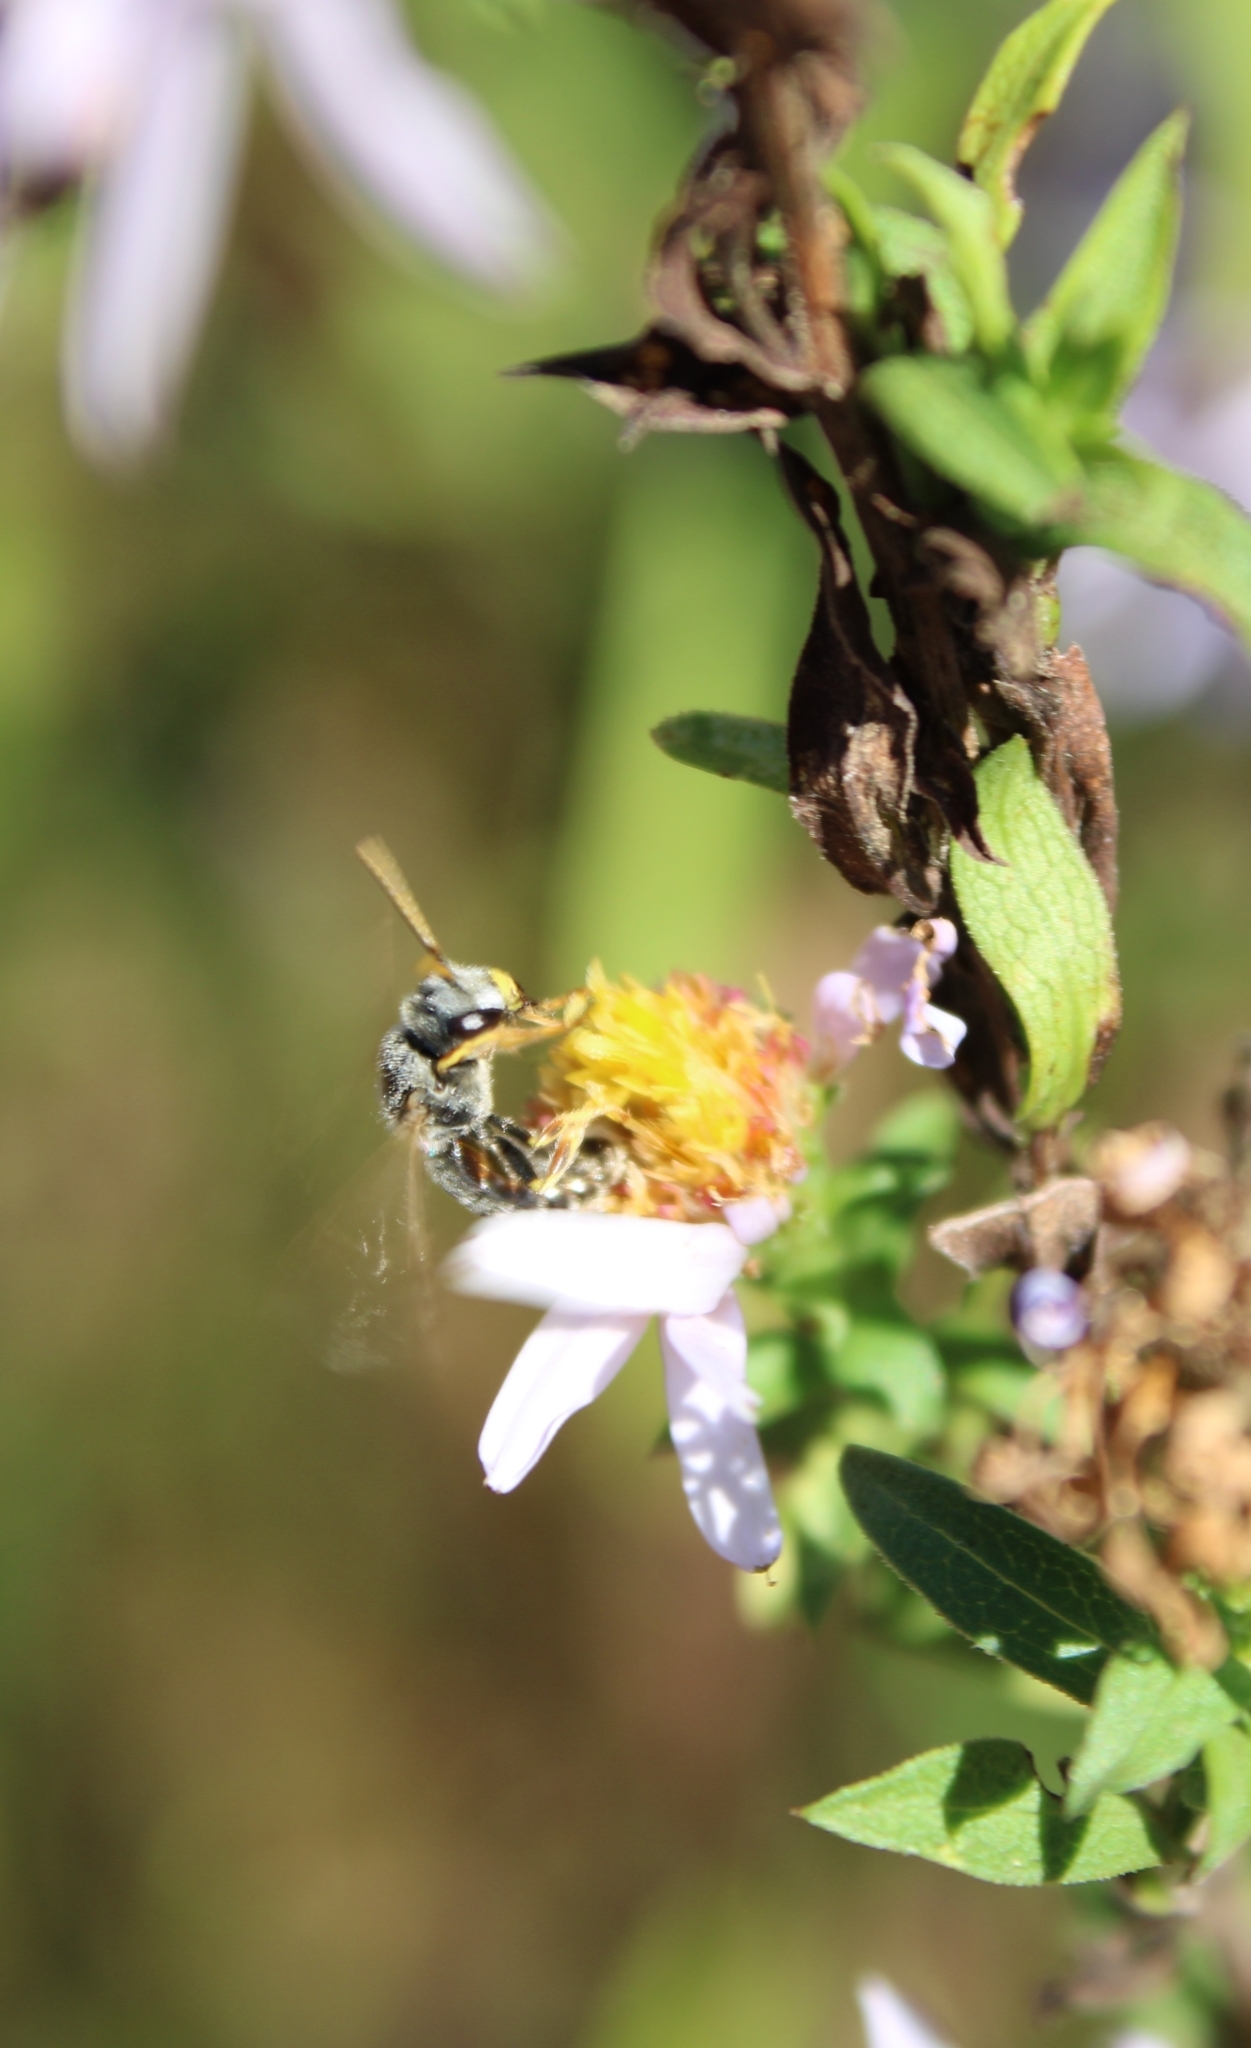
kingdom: Animalia
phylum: Arthropoda
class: Insecta
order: Hymenoptera
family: Halictidae
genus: Halictus
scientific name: Halictus ligatus
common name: Ligated furrow bee
